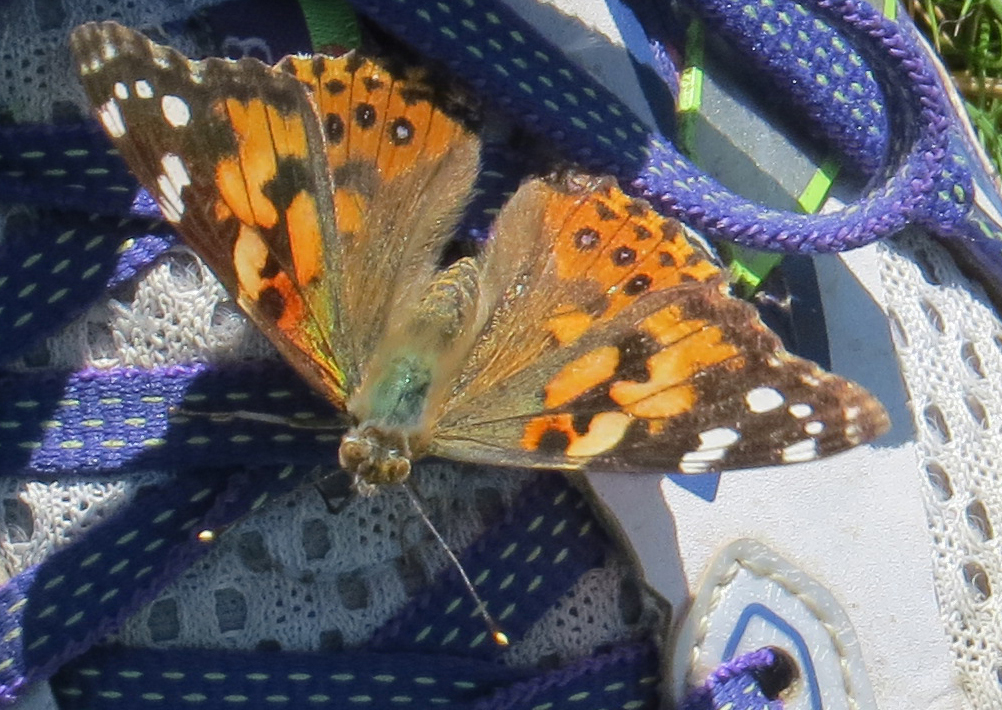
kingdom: Animalia
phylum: Arthropoda
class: Insecta
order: Lepidoptera
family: Nymphalidae
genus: Vanessa
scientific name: Vanessa cardui
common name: Painted lady
